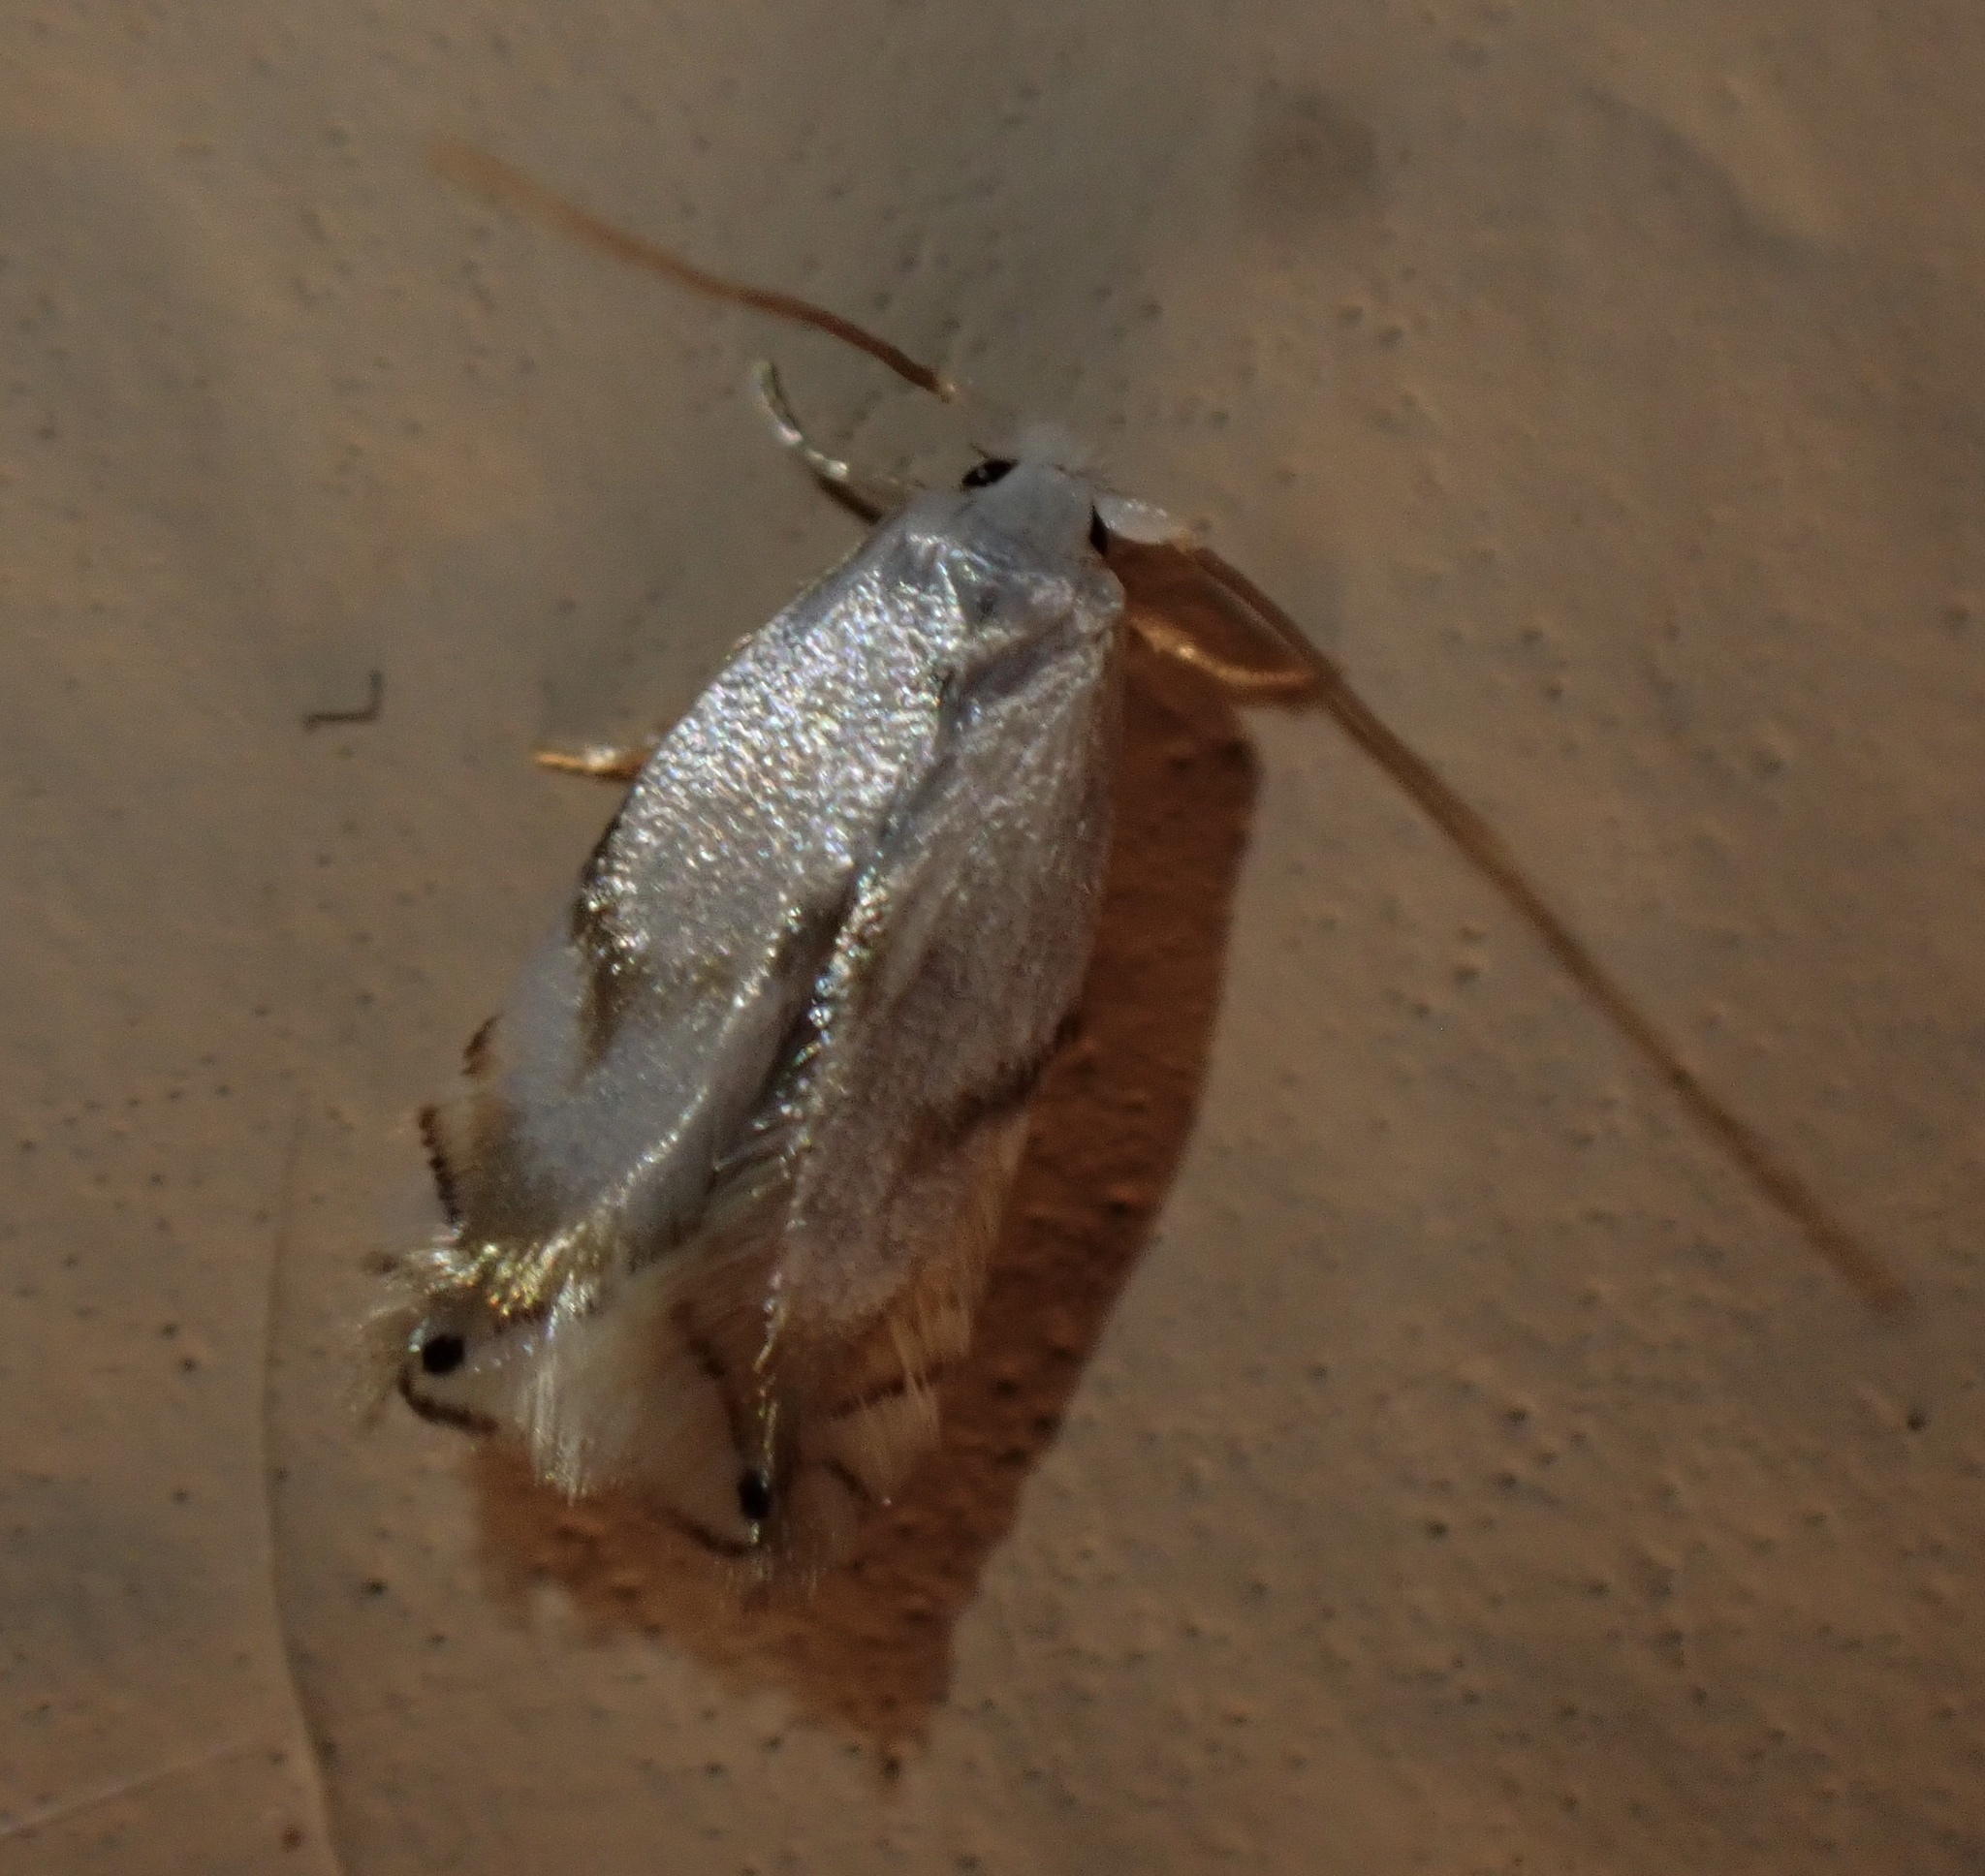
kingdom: Animalia
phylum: Arthropoda
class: Insecta
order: Lepidoptera
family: Opostegidae
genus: Pseudopostega
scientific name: Pseudopostega crepusculella
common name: Mint bent-wing
